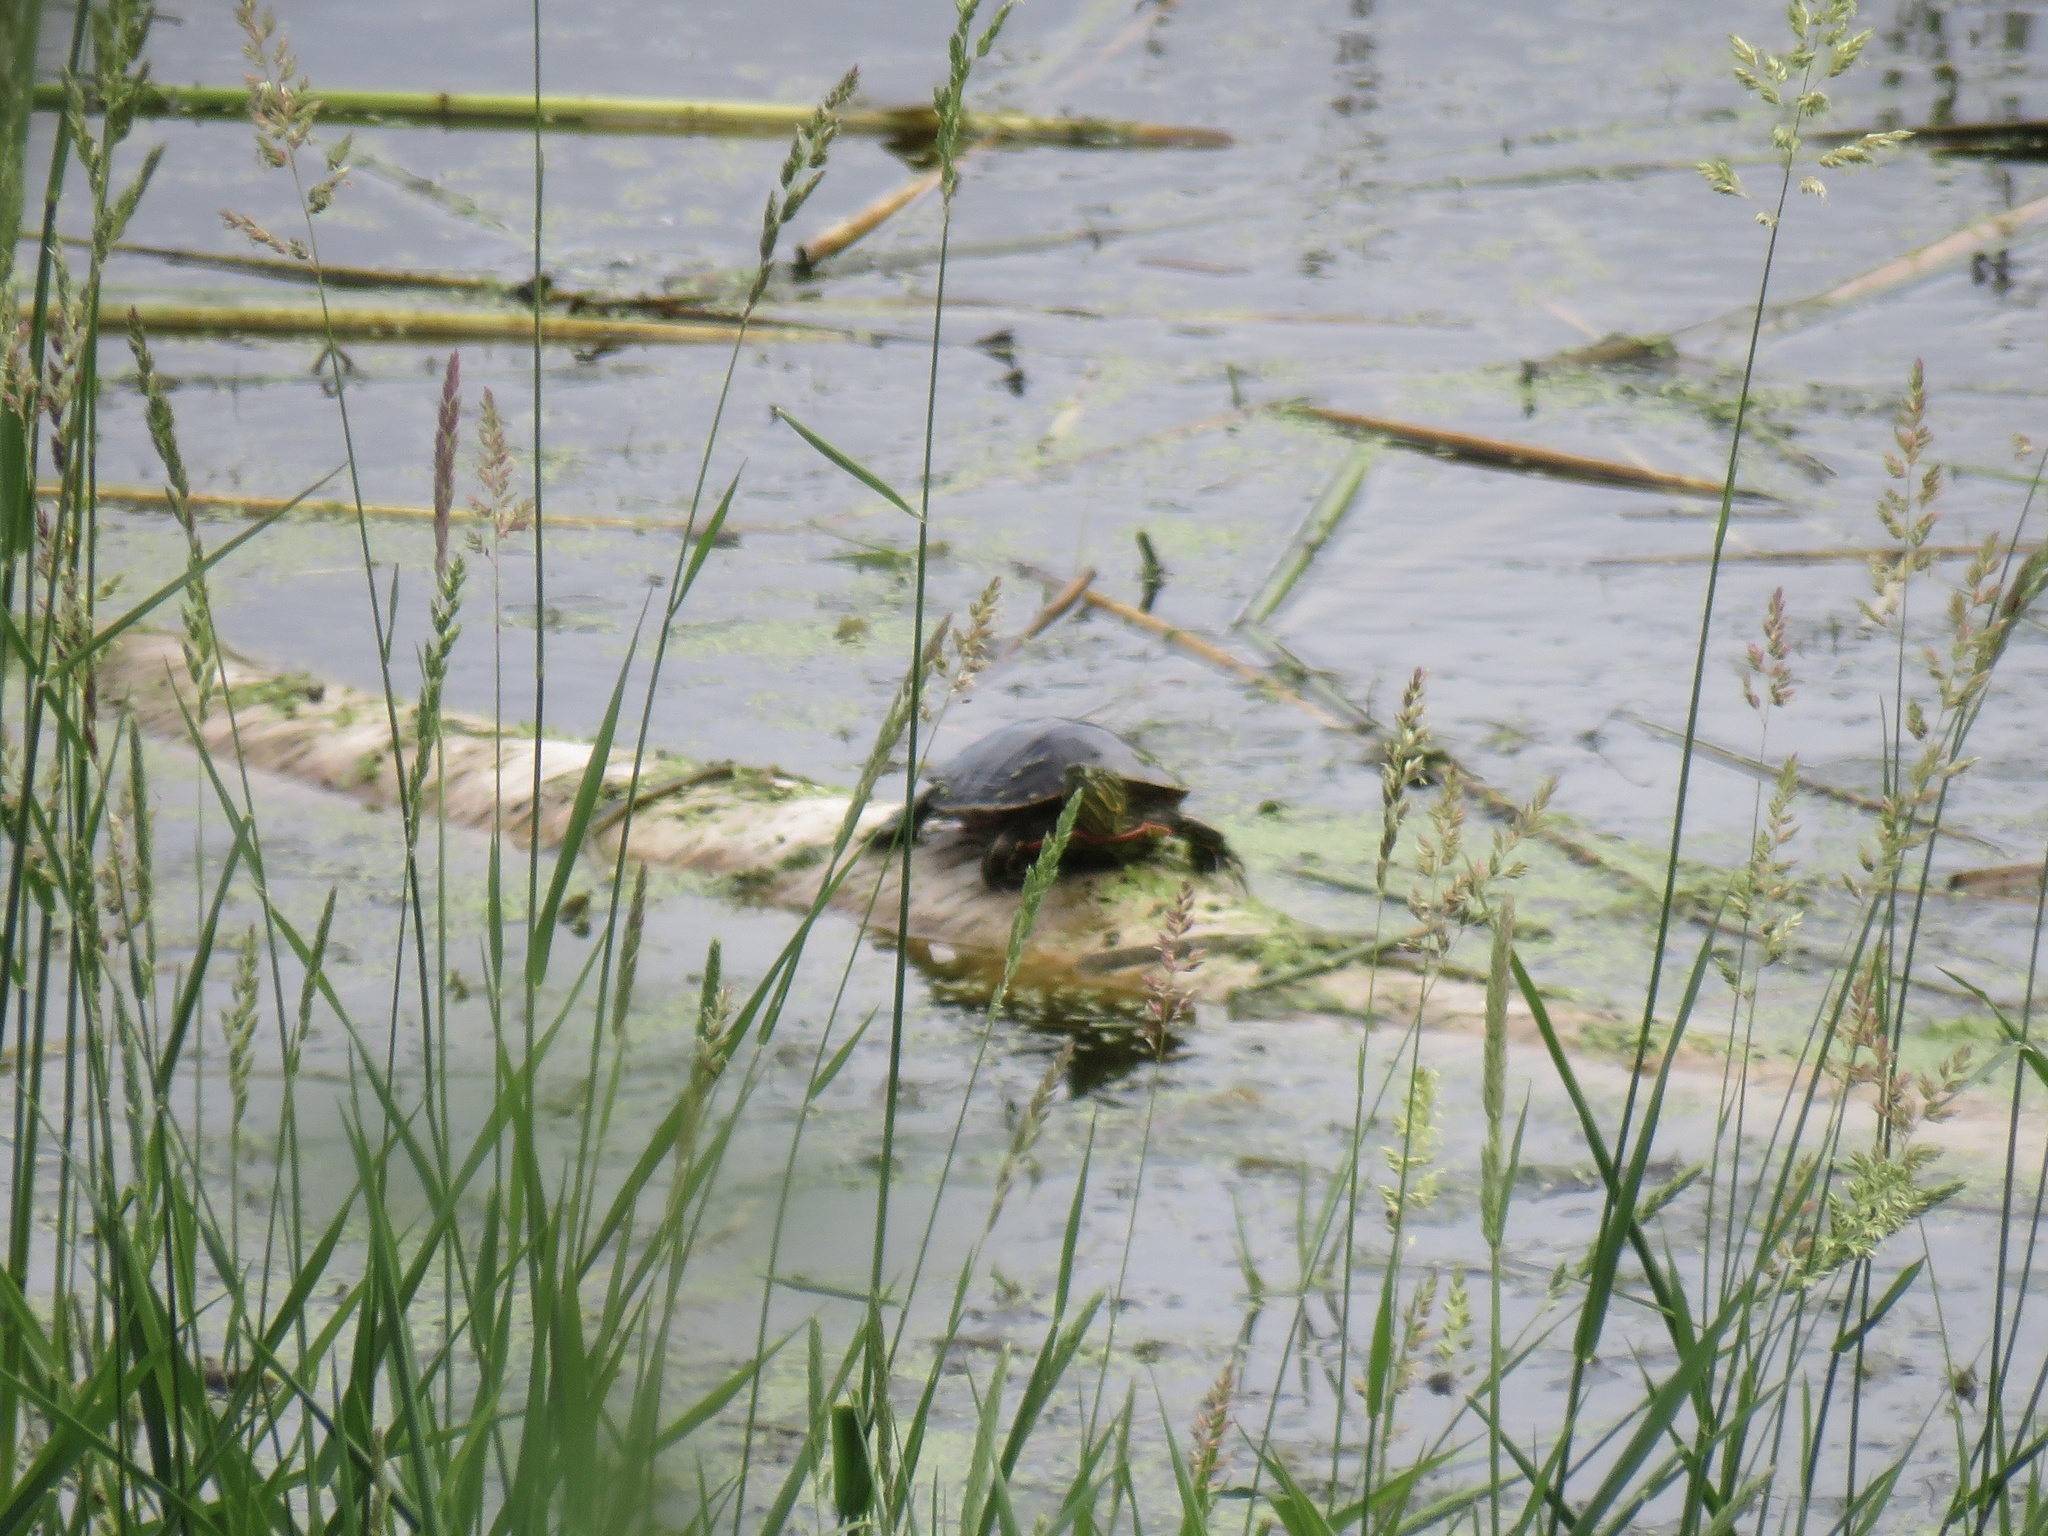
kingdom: Animalia
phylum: Chordata
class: Testudines
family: Emydidae
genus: Chrysemys
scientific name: Chrysemys picta
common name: Painted turtle
